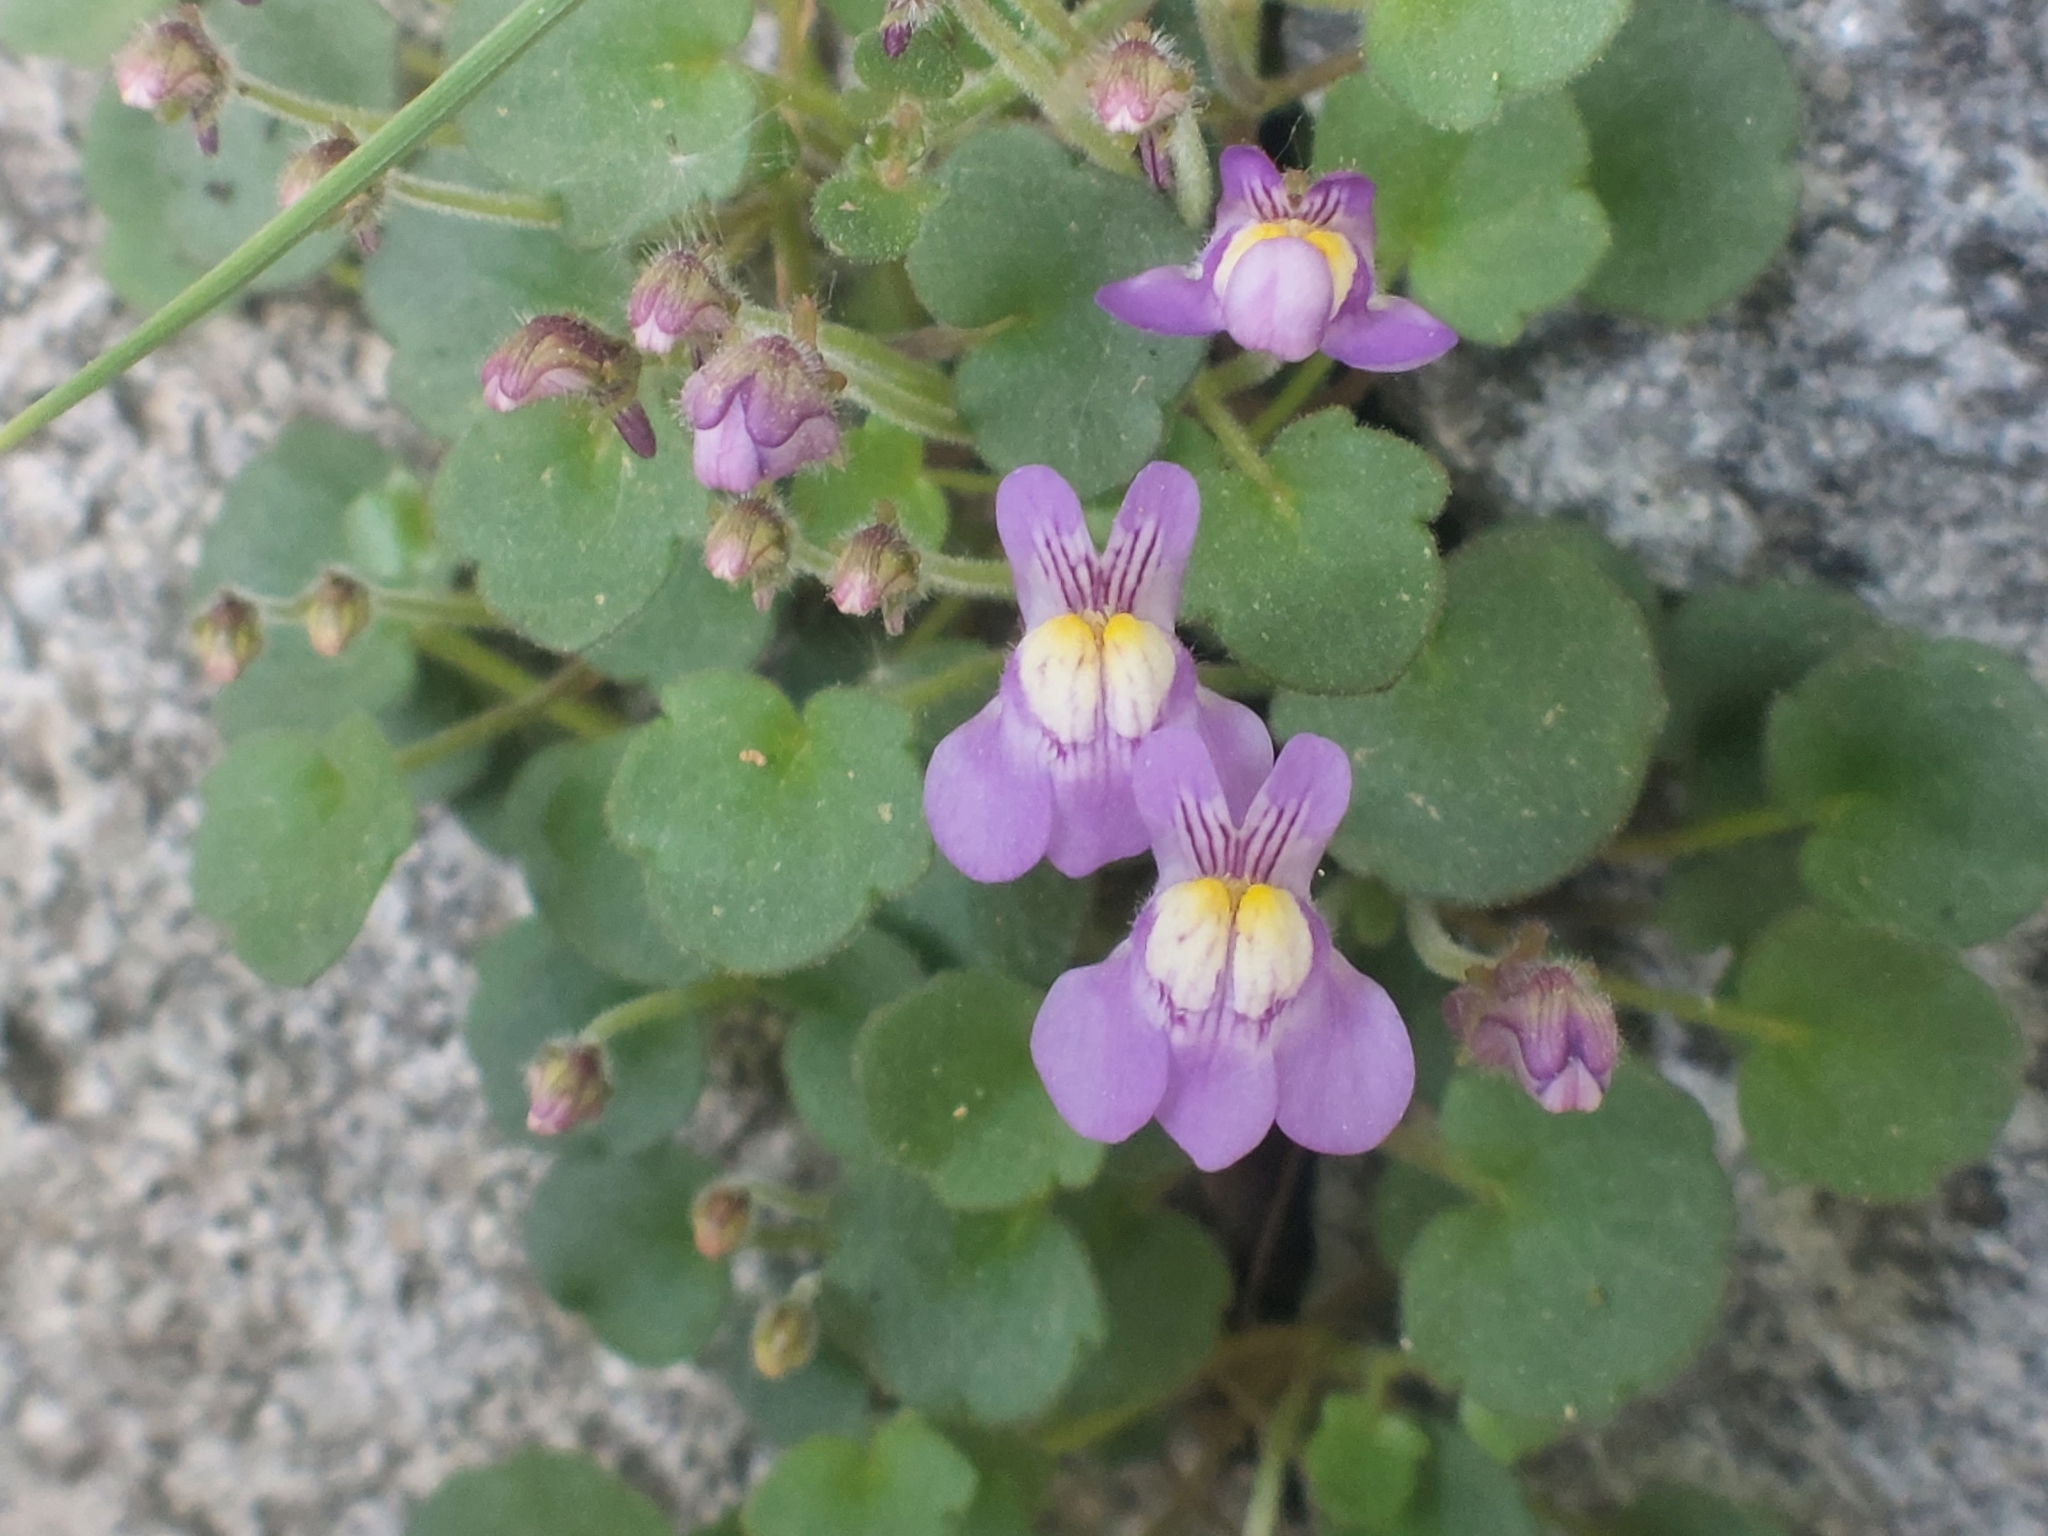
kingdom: Plantae
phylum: Tracheophyta
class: Magnoliopsida
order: Lamiales
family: Plantaginaceae
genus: Cymbalaria
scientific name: Cymbalaria muralis
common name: Ivy-leaved toadflax
